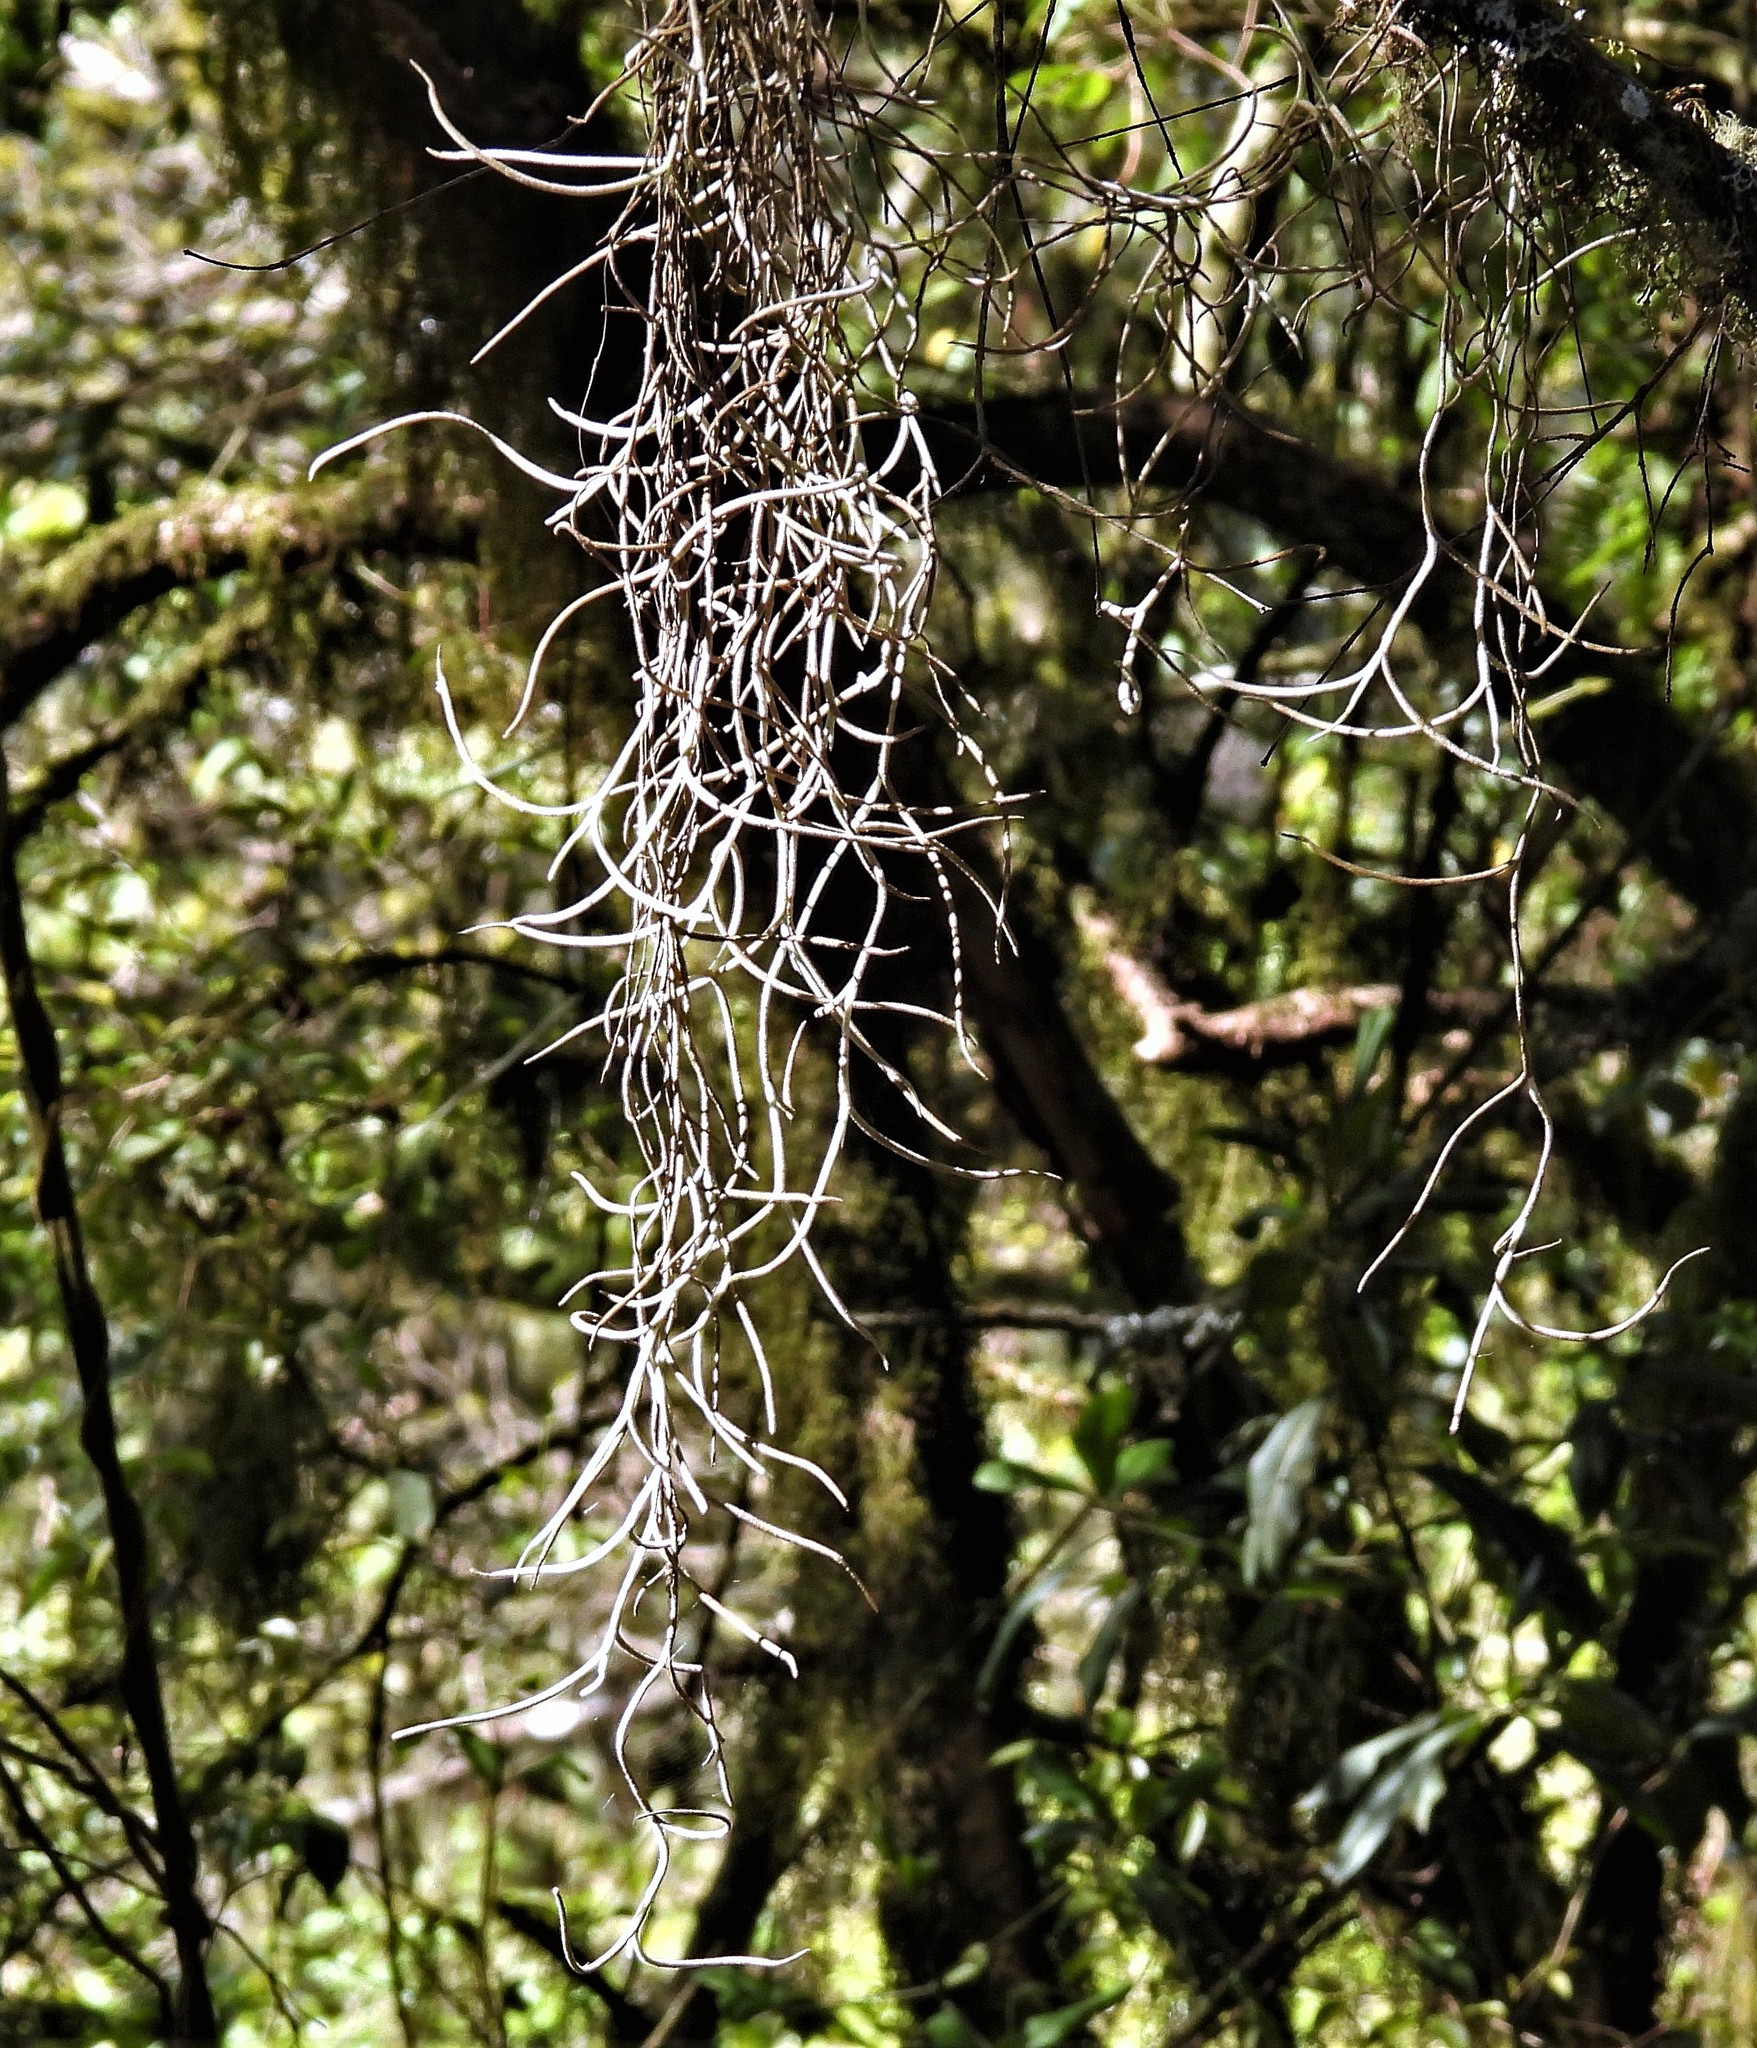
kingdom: Plantae
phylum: Tracheophyta
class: Liliopsida
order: Poales
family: Bromeliaceae
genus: Tillandsia
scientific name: Tillandsia usneoides
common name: Spanish moss
